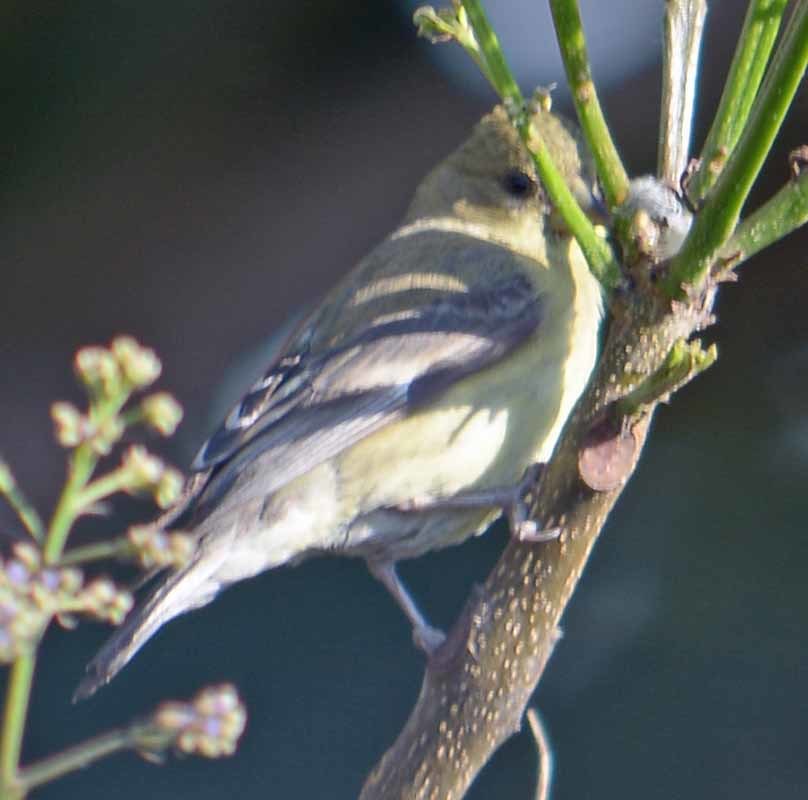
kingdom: Animalia
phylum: Chordata
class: Aves
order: Passeriformes
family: Fringillidae
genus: Spinus
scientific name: Spinus psaltria
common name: Lesser goldfinch
